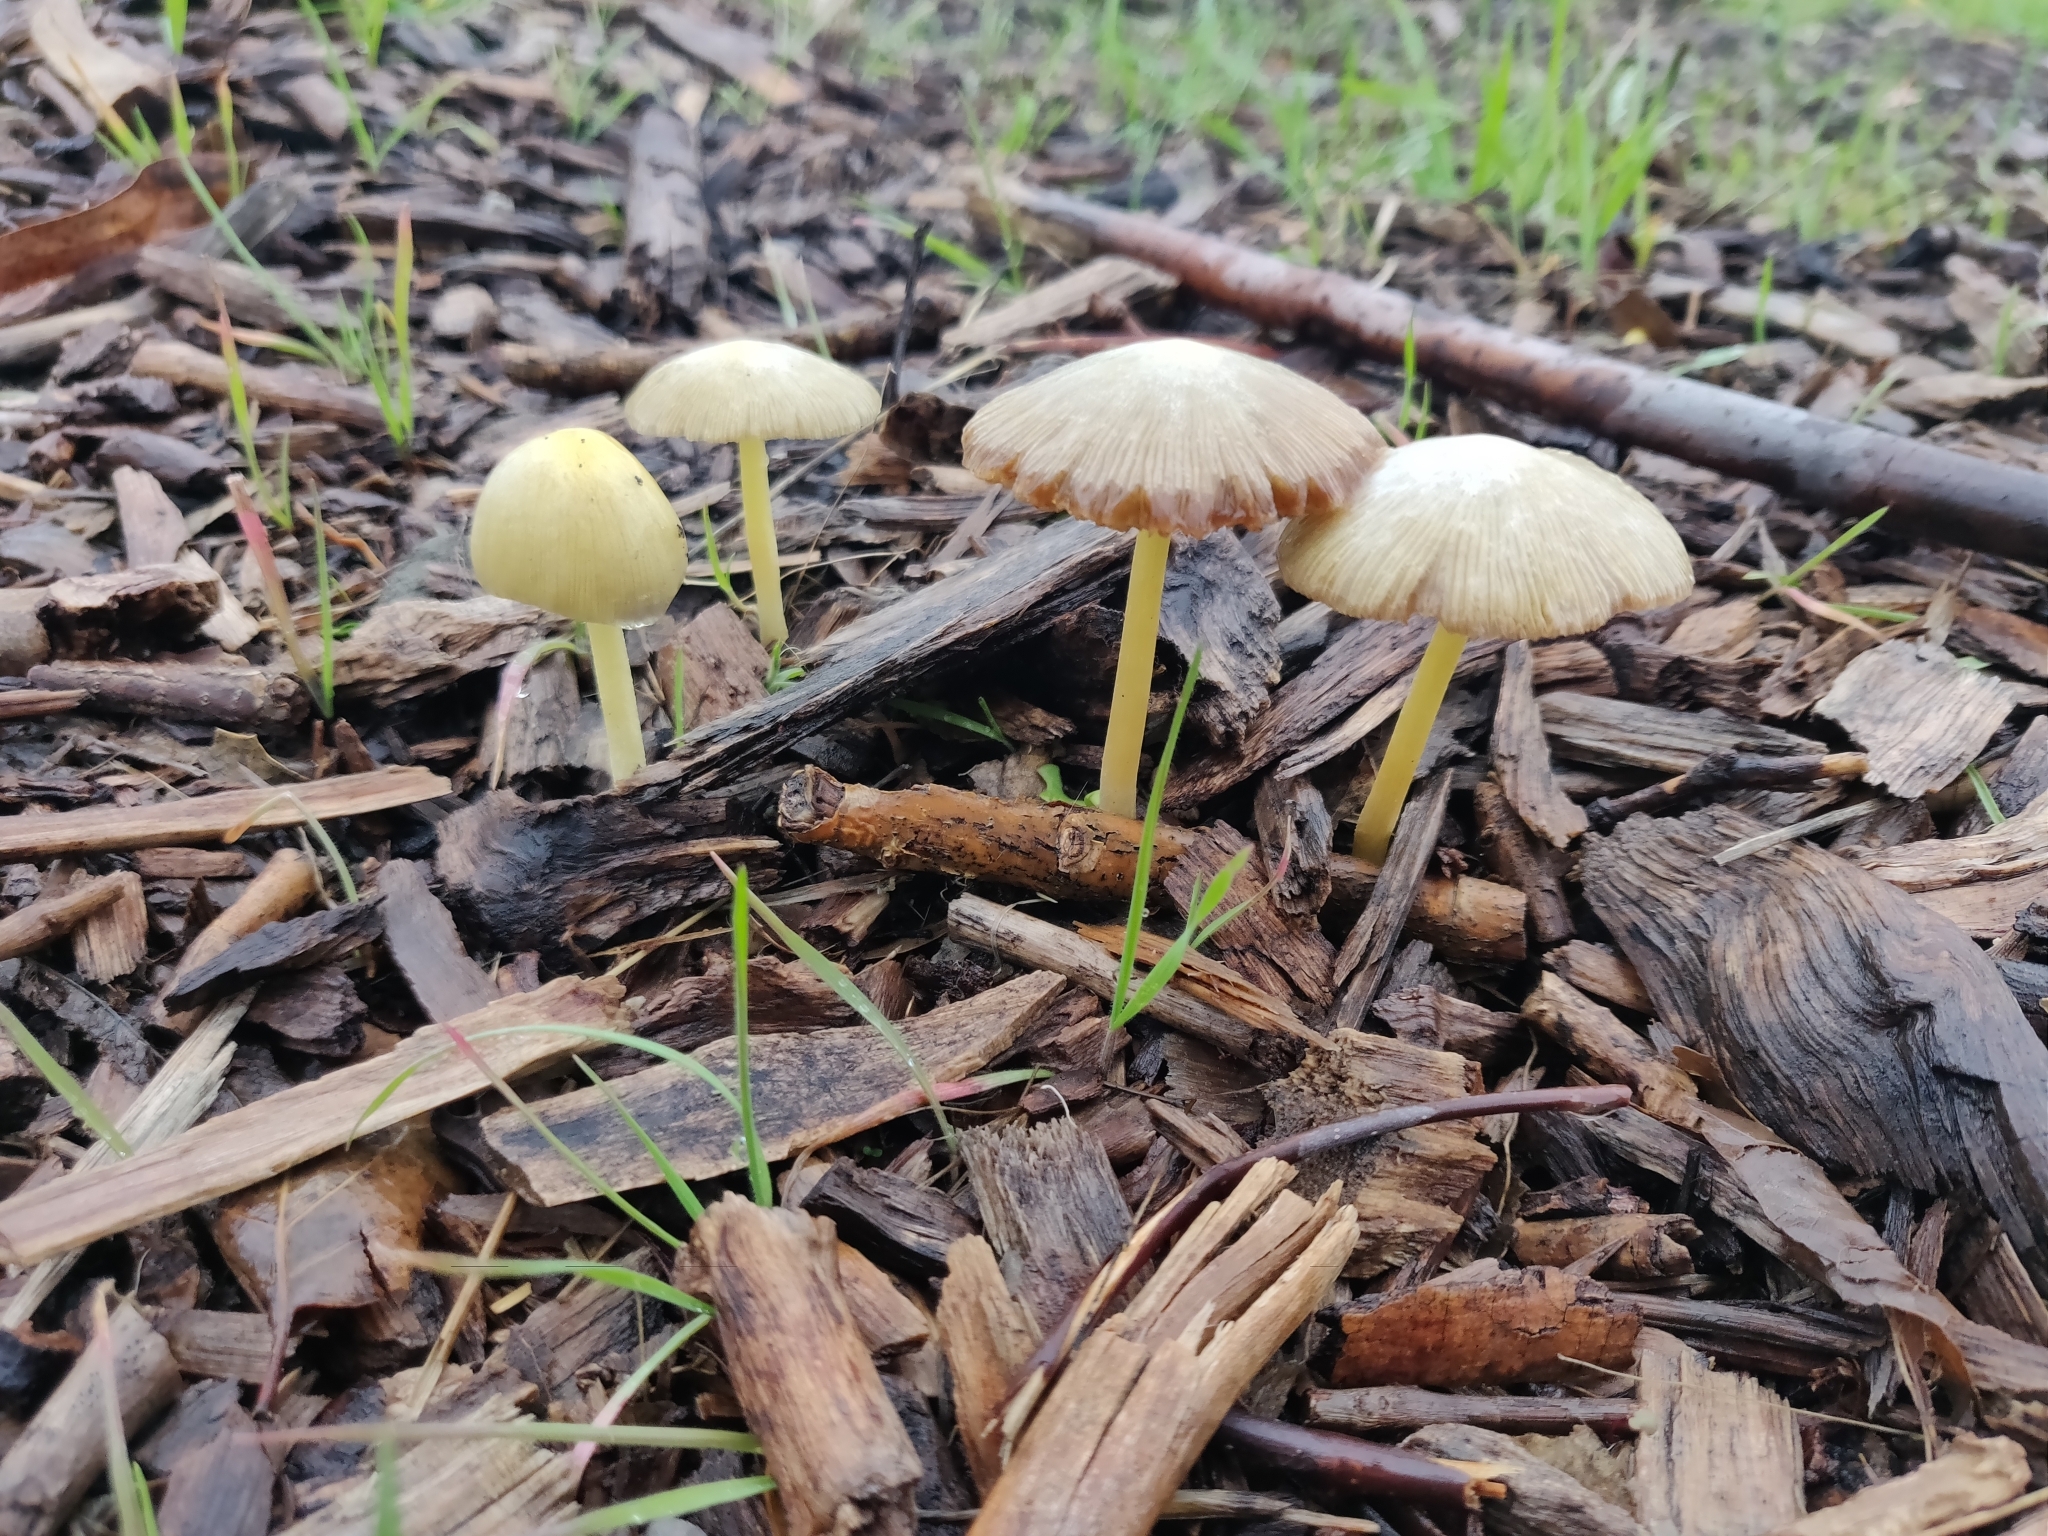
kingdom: Fungi
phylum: Basidiomycota
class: Agaricomycetes
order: Agaricales
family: Bolbitiaceae
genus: Bolbitius
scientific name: Bolbitius titubans
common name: Yellow fieldcap
